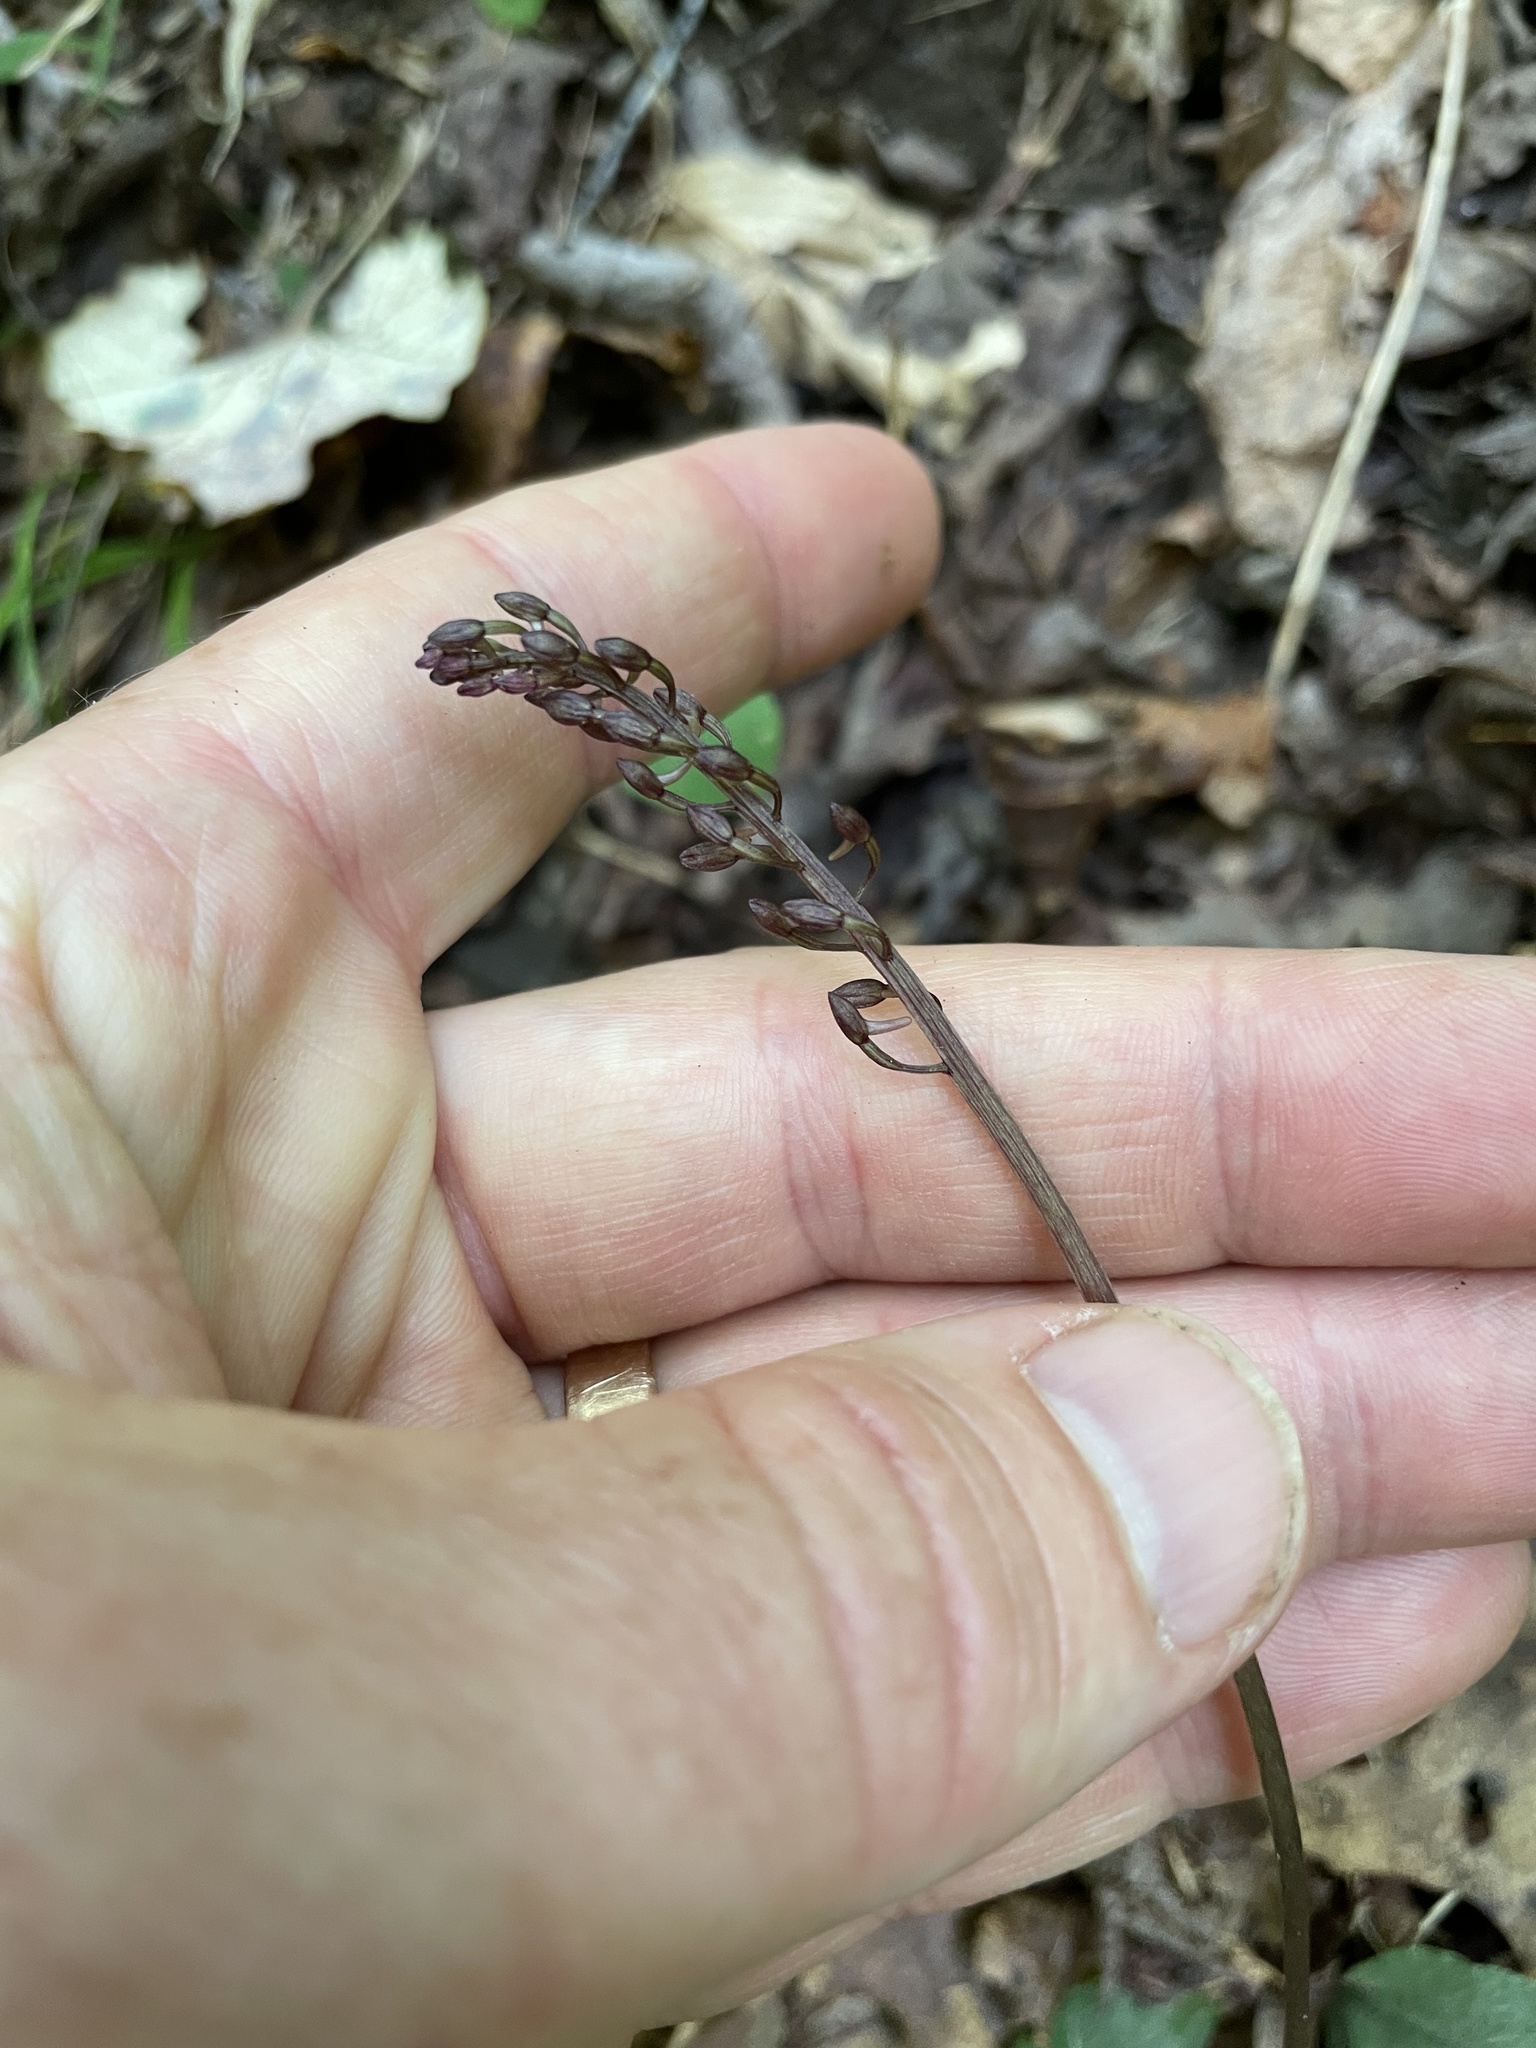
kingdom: Plantae
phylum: Tracheophyta
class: Liliopsida
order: Asparagales
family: Orchidaceae
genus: Tipularia
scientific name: Tipularia discolor
